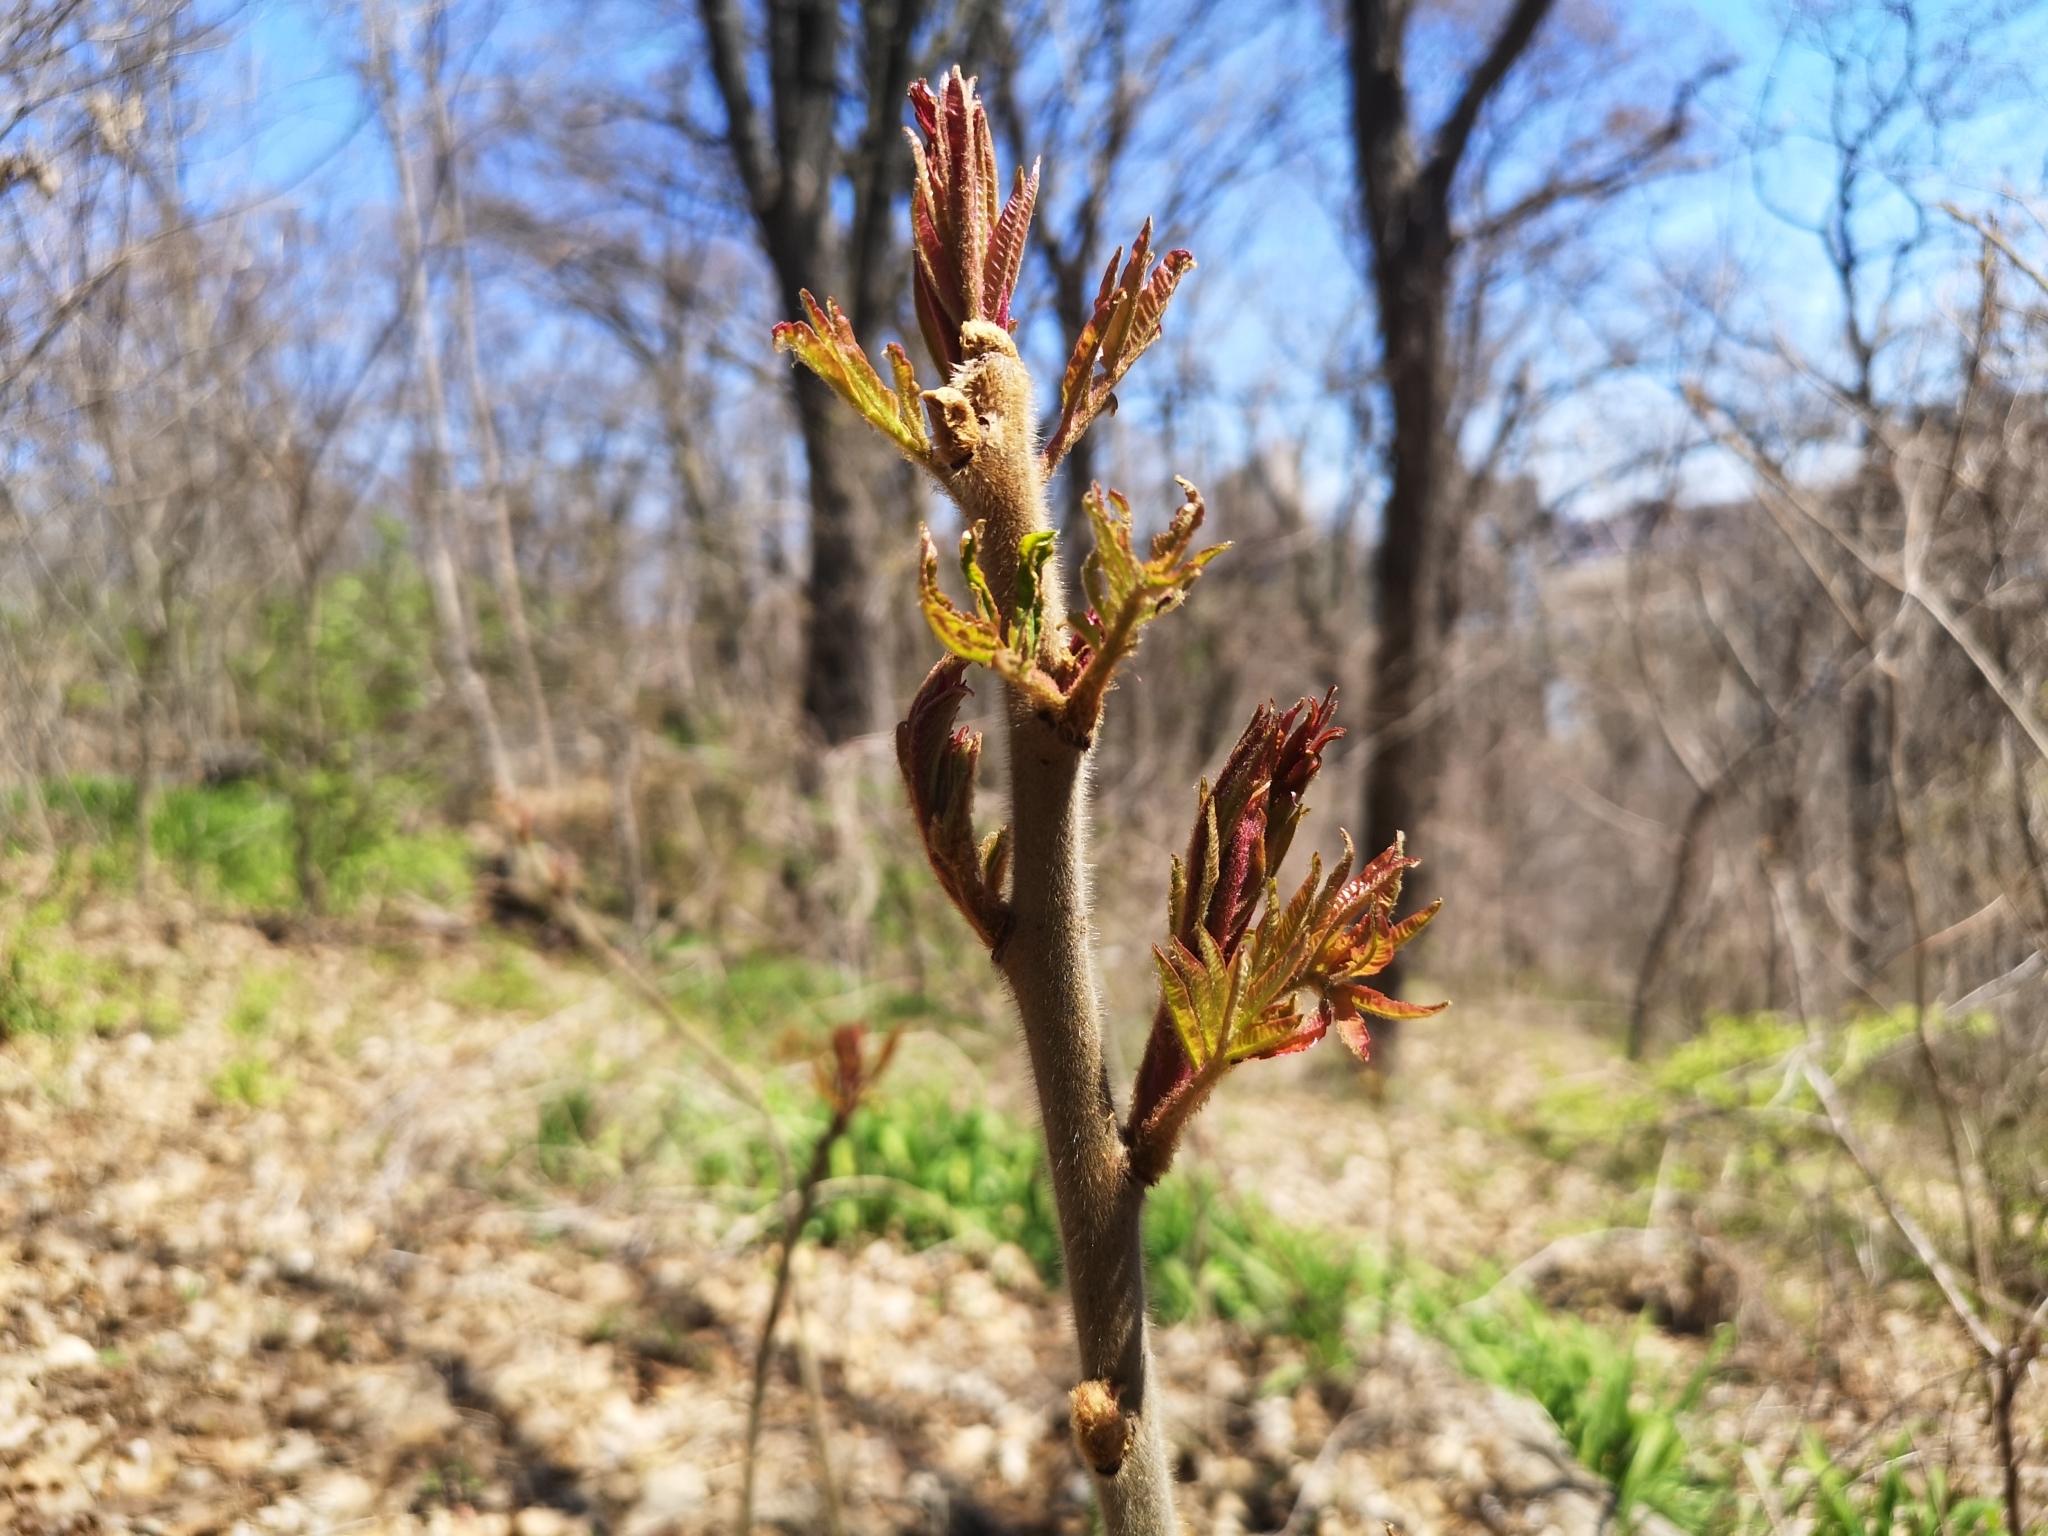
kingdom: Plantae
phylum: Tracheophyta
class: Magnoliopsida
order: Sapindales
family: Anacardiaceae
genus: Rhus
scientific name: Rhus typhina
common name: Staghorn sumac
